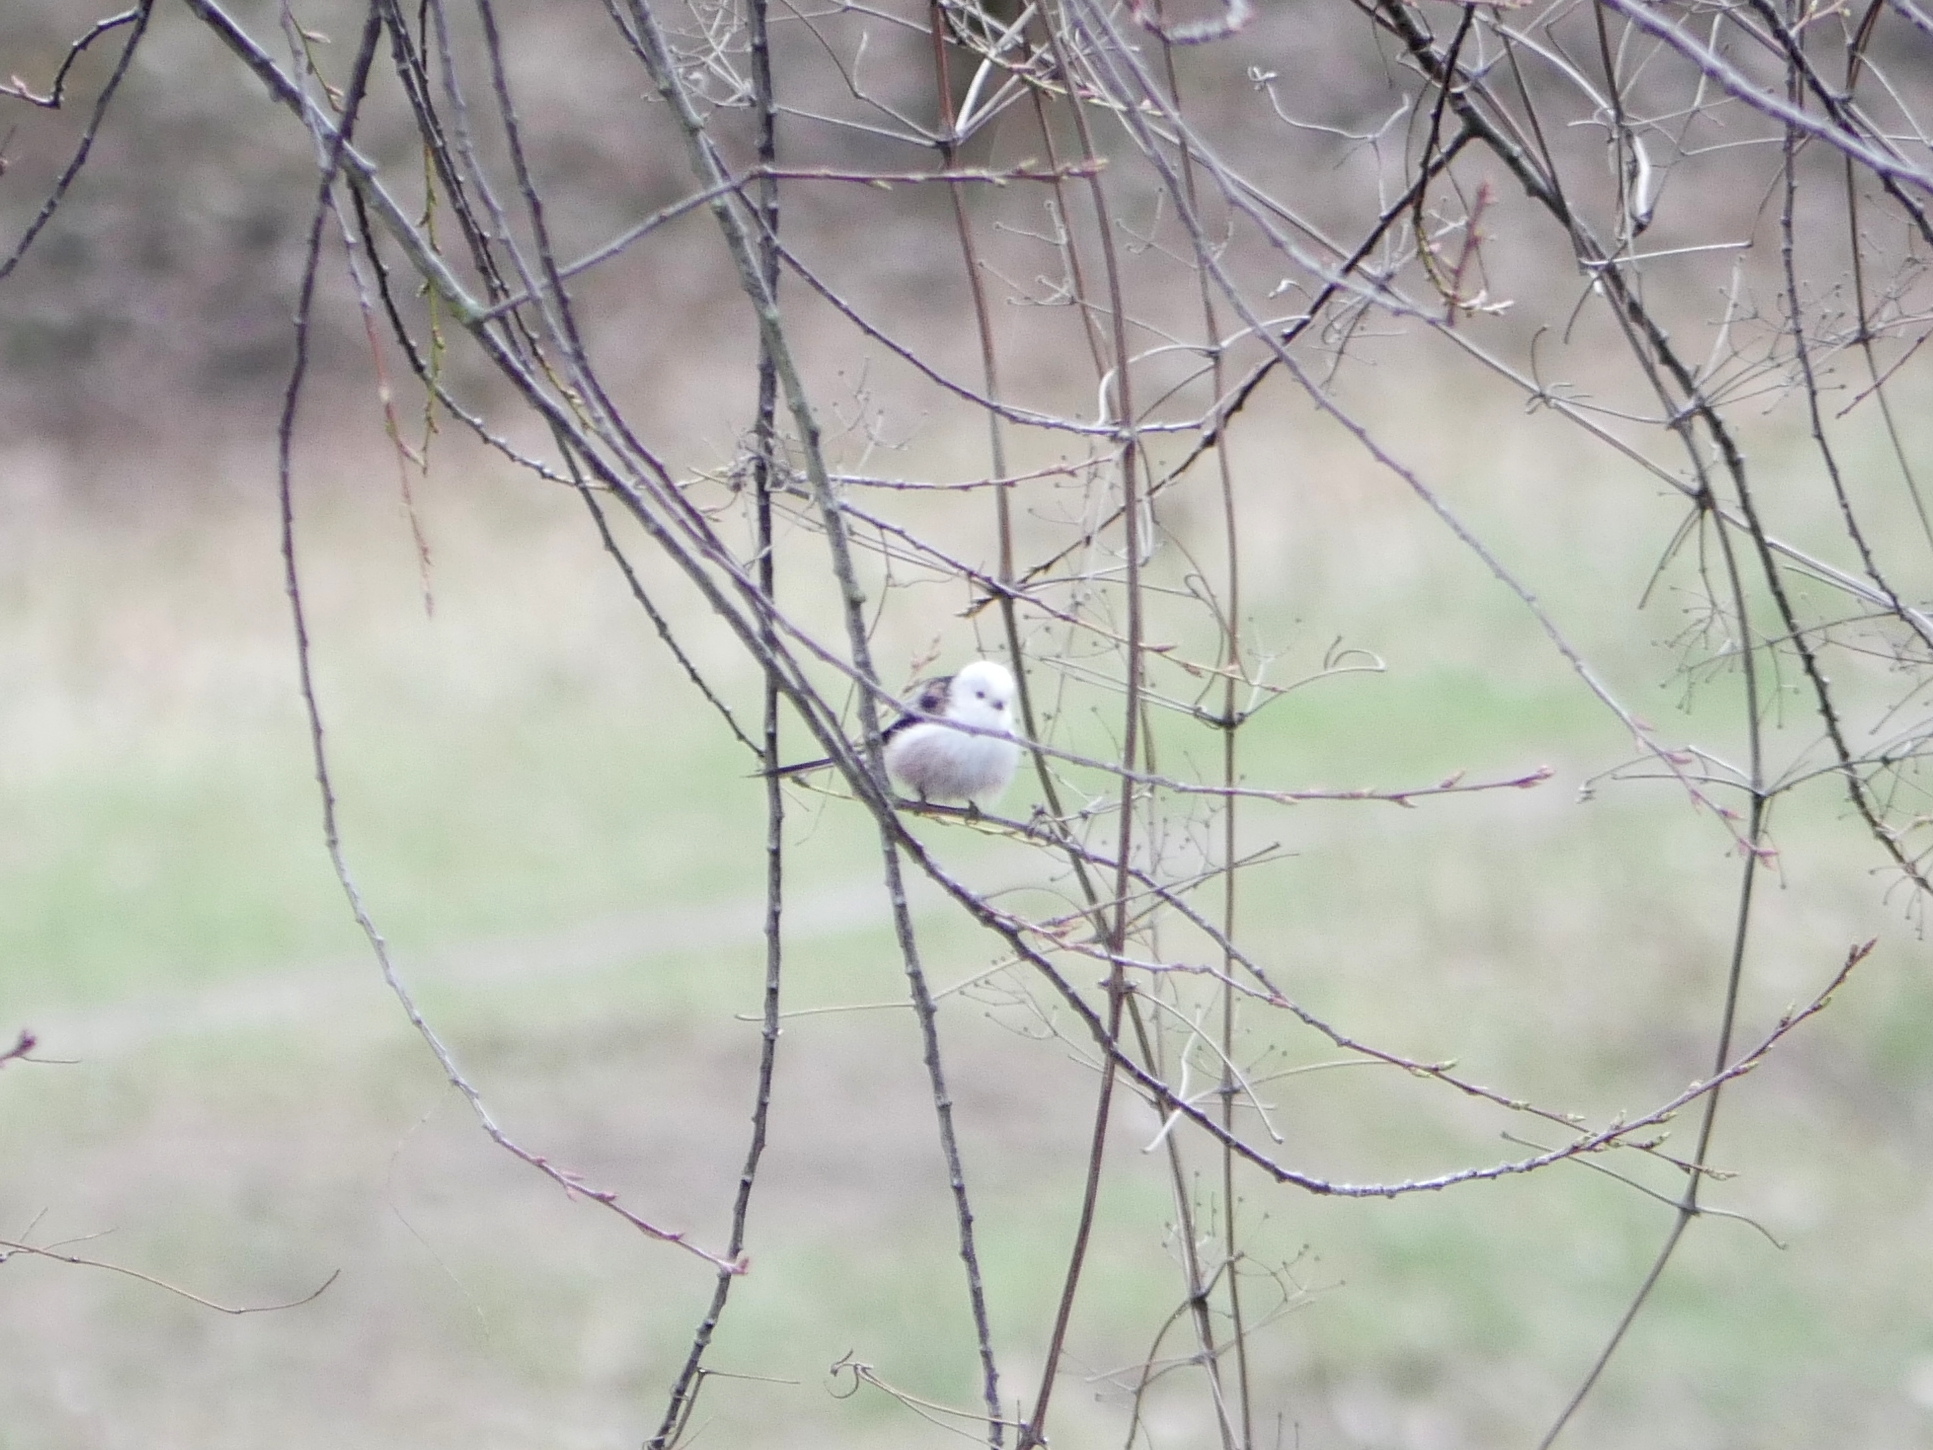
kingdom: Animalia
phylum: Chordata
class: Aves
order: Passeriformes
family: Aegithalidae
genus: Aegithalos
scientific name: Aegithalos caudatus
